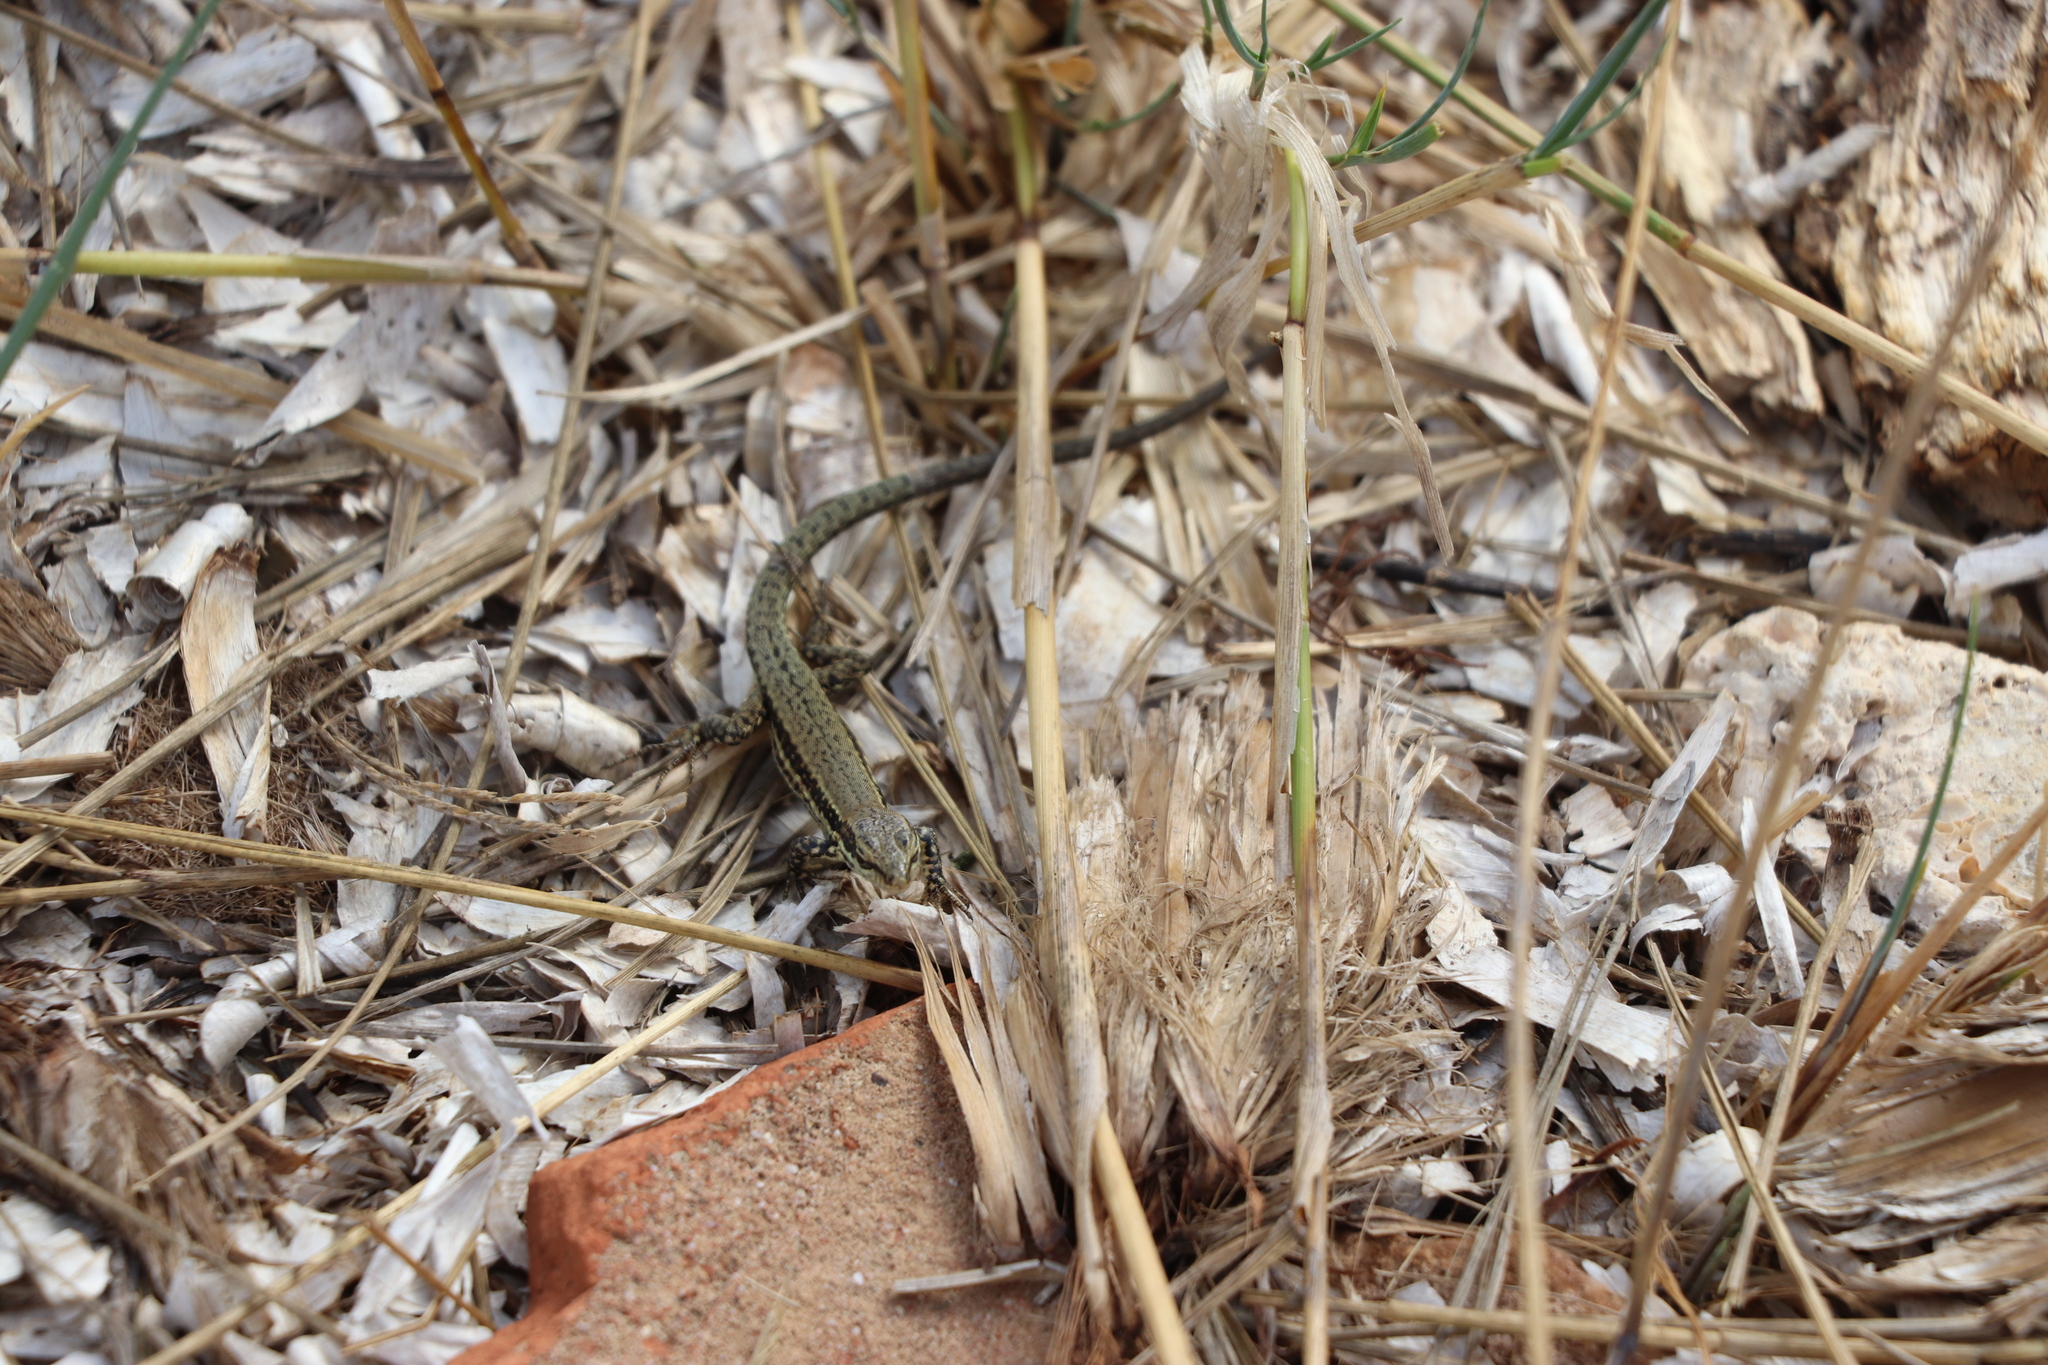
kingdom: Animalia
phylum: Chordata
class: Squamata
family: Lacertidae
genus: Podarcis
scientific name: Podarcis muralis
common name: Common wall lizard
